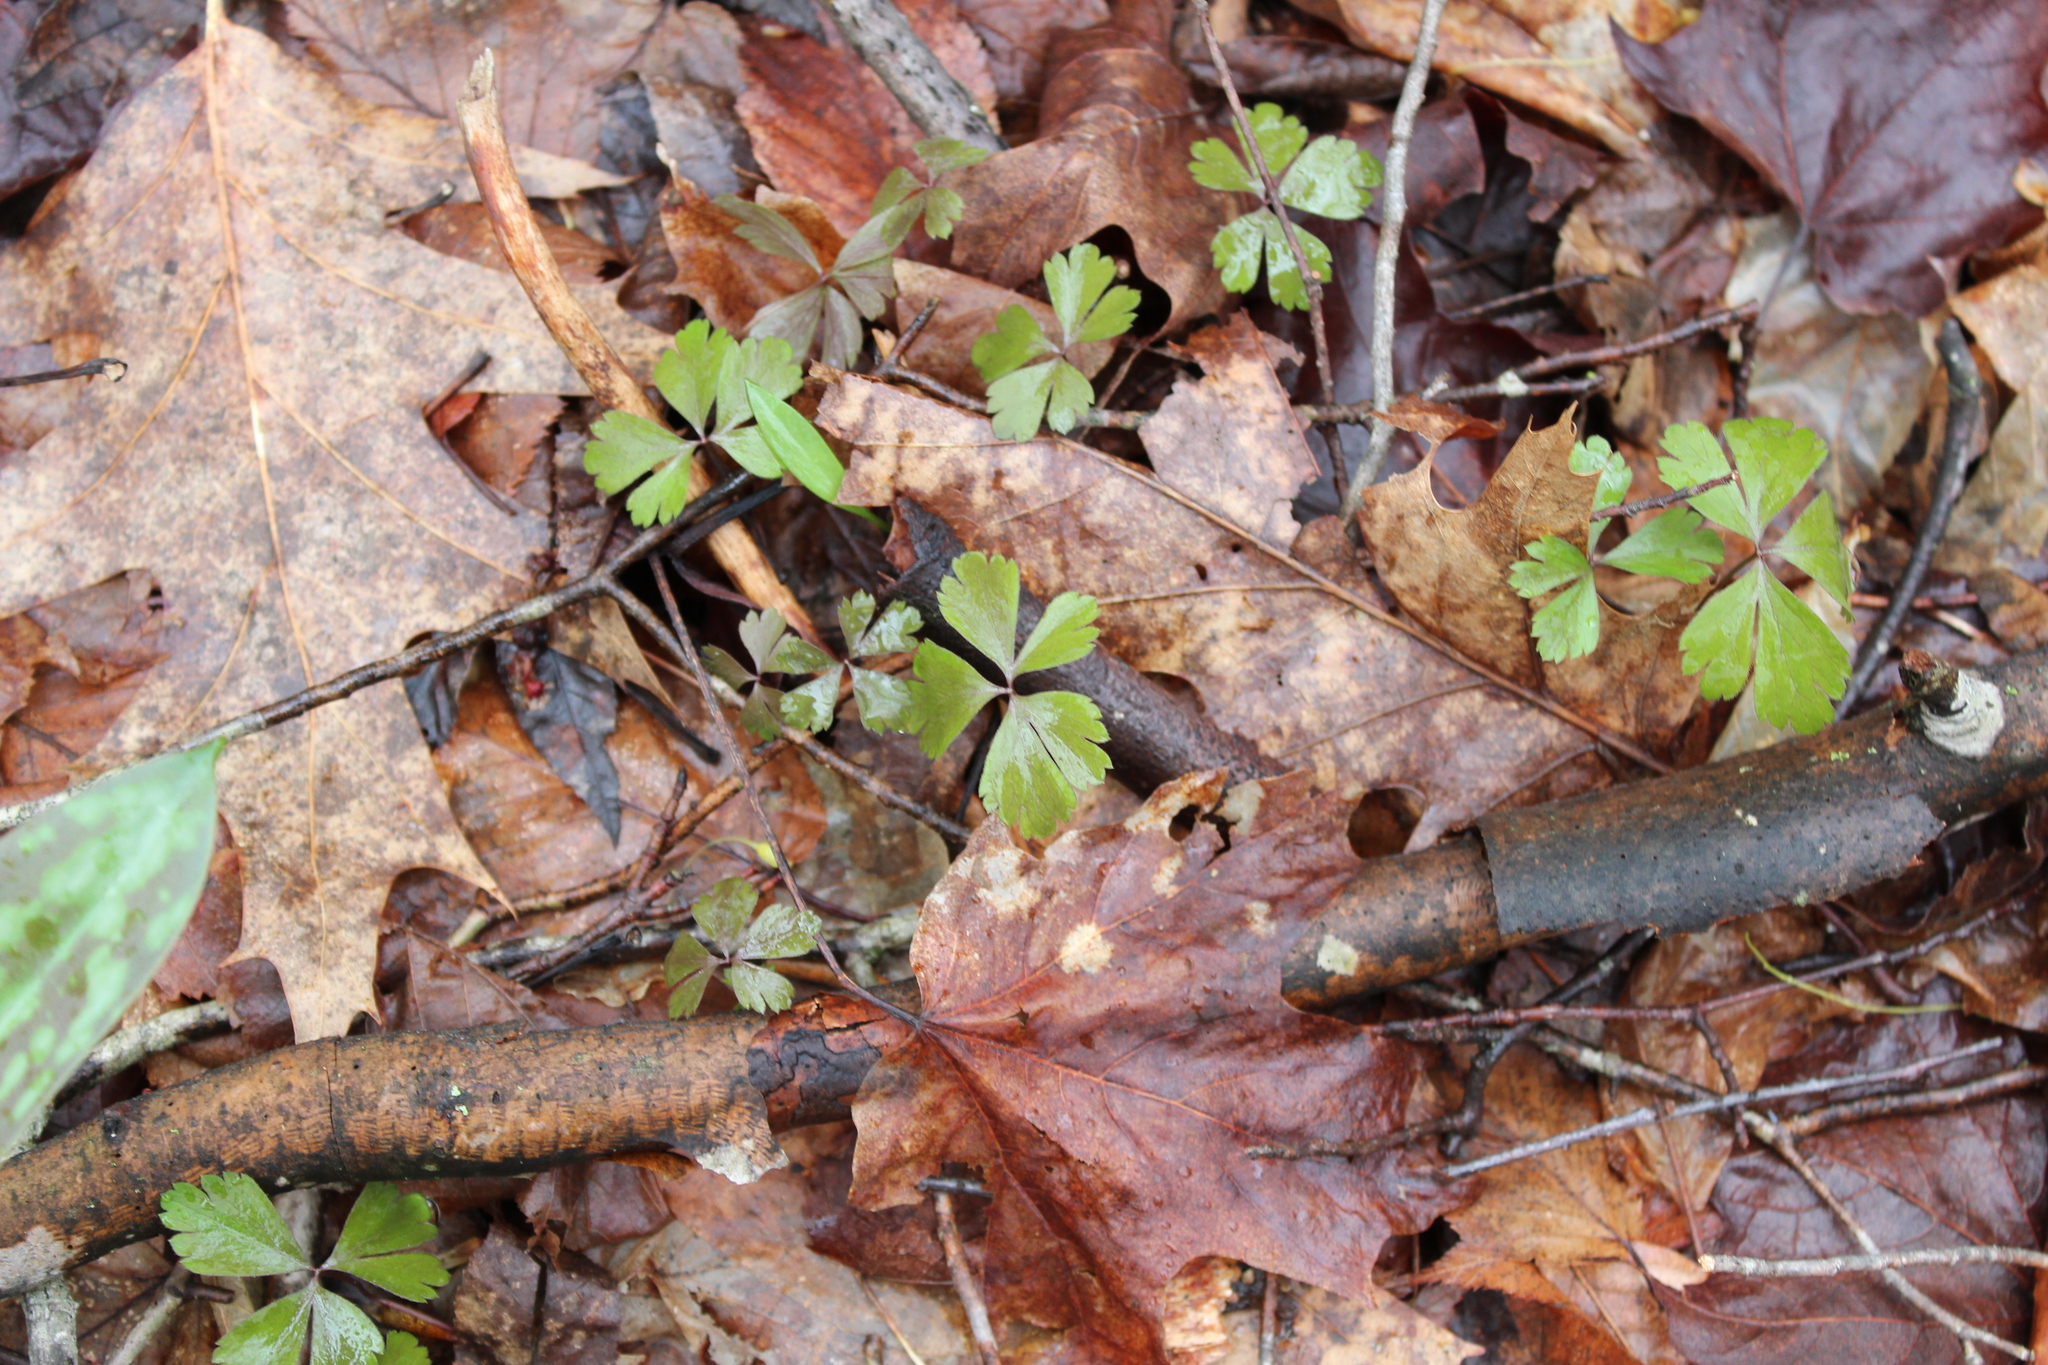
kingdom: Plantae
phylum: Tracheophyta
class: Magnoliopsida
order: Ranunculales
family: Ranunculaceae
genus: Anemone
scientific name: Anemone quinquefolia
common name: Wood anemone
